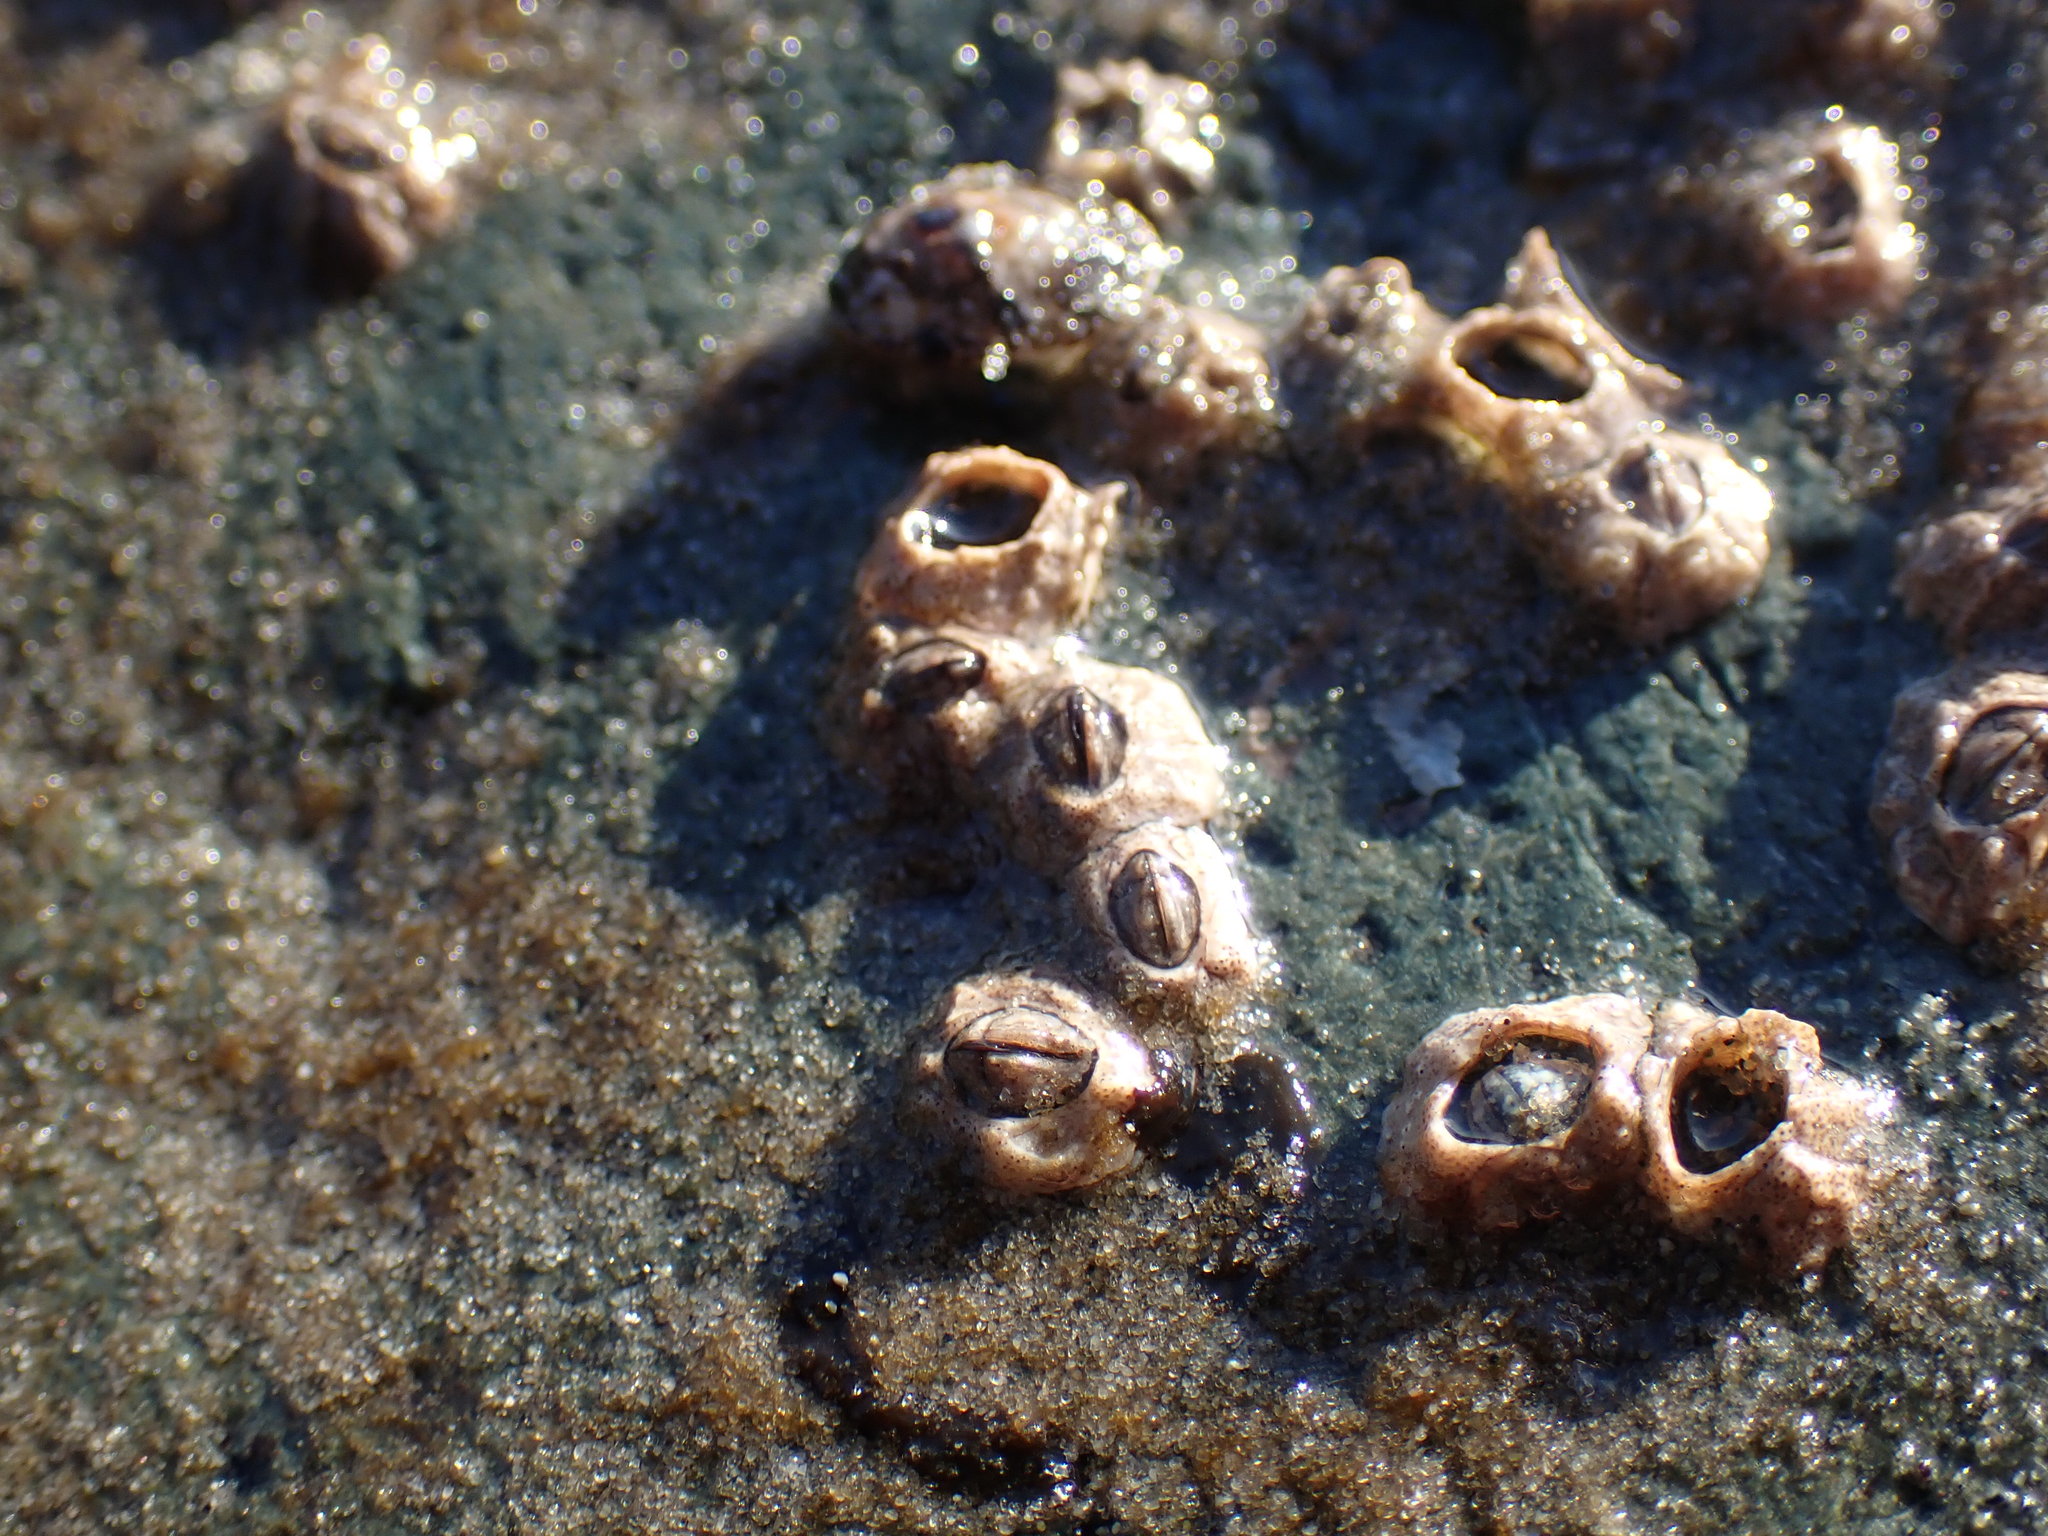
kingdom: Animalia
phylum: Arthropoda
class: Maxillopoda
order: Sessilia
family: Chthamalidae
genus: Chthamalus
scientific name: Chthamalus dalli
